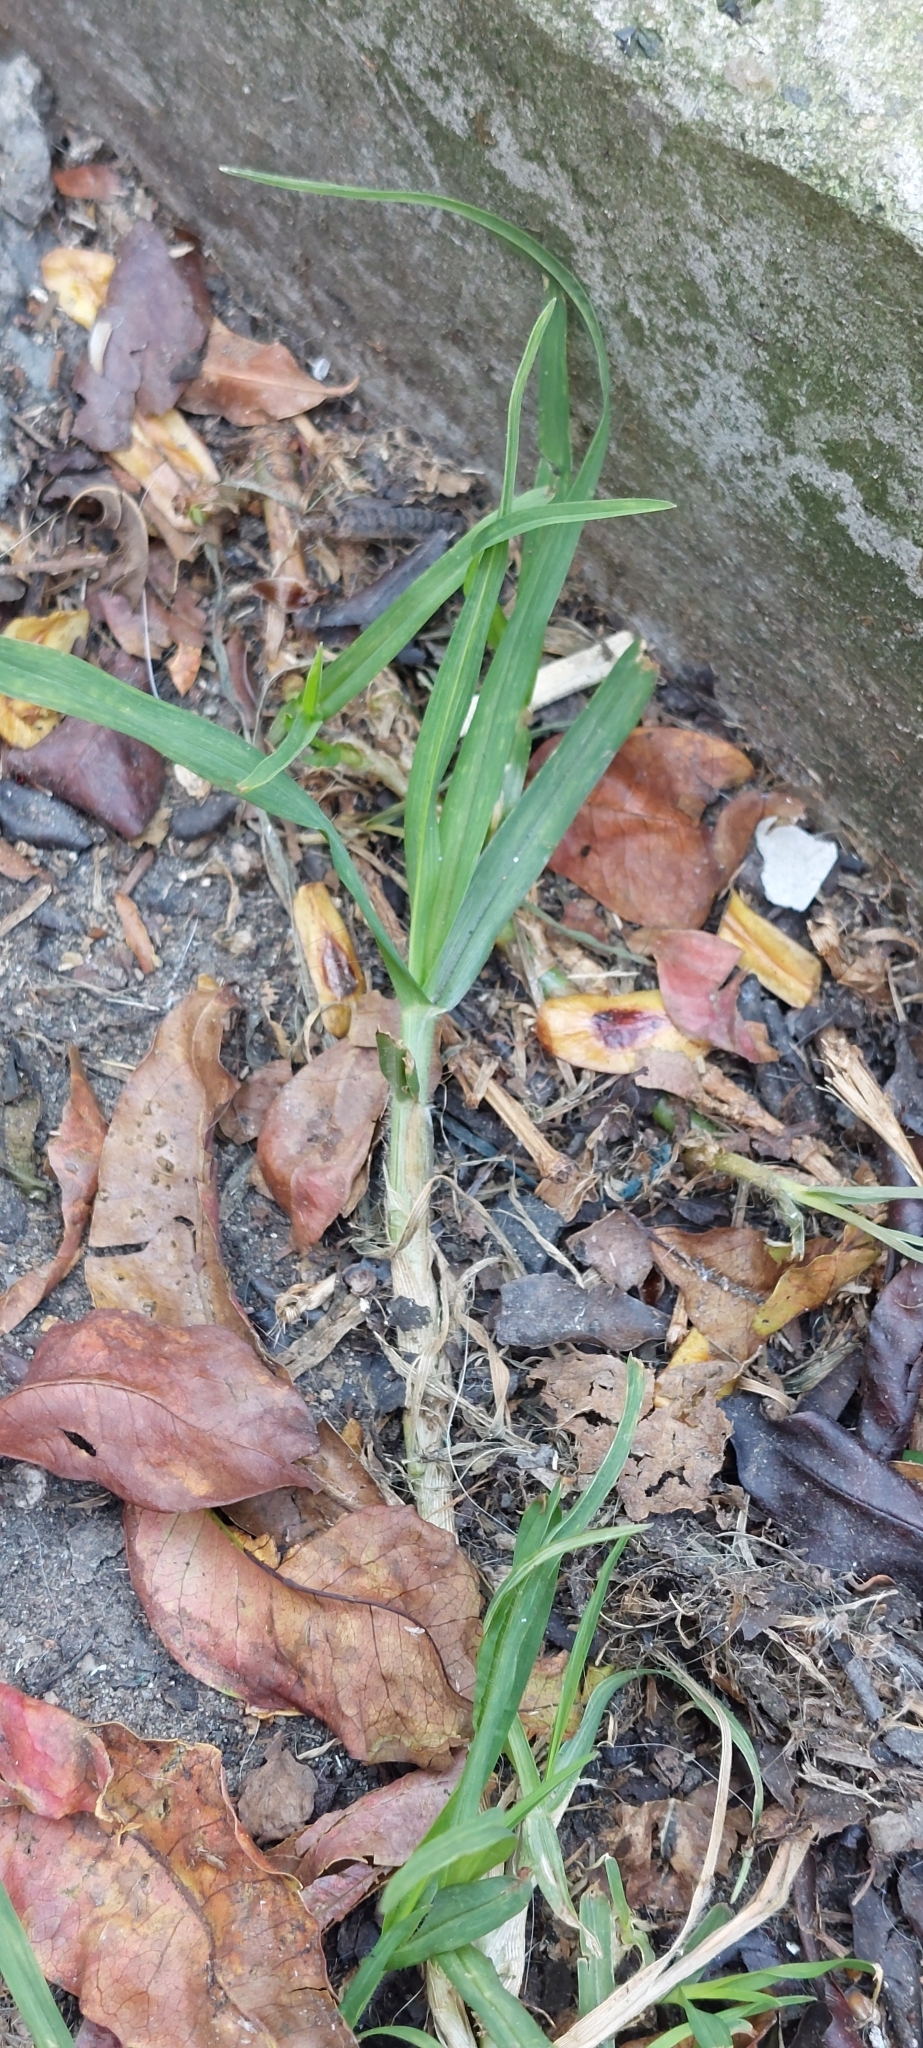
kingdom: Plantae
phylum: Tracheophyta
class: Liliopsida
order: Poales
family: Poaceae
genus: Cenchrus
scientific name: Cenchrus clandestinus
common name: Kikuyugrass
